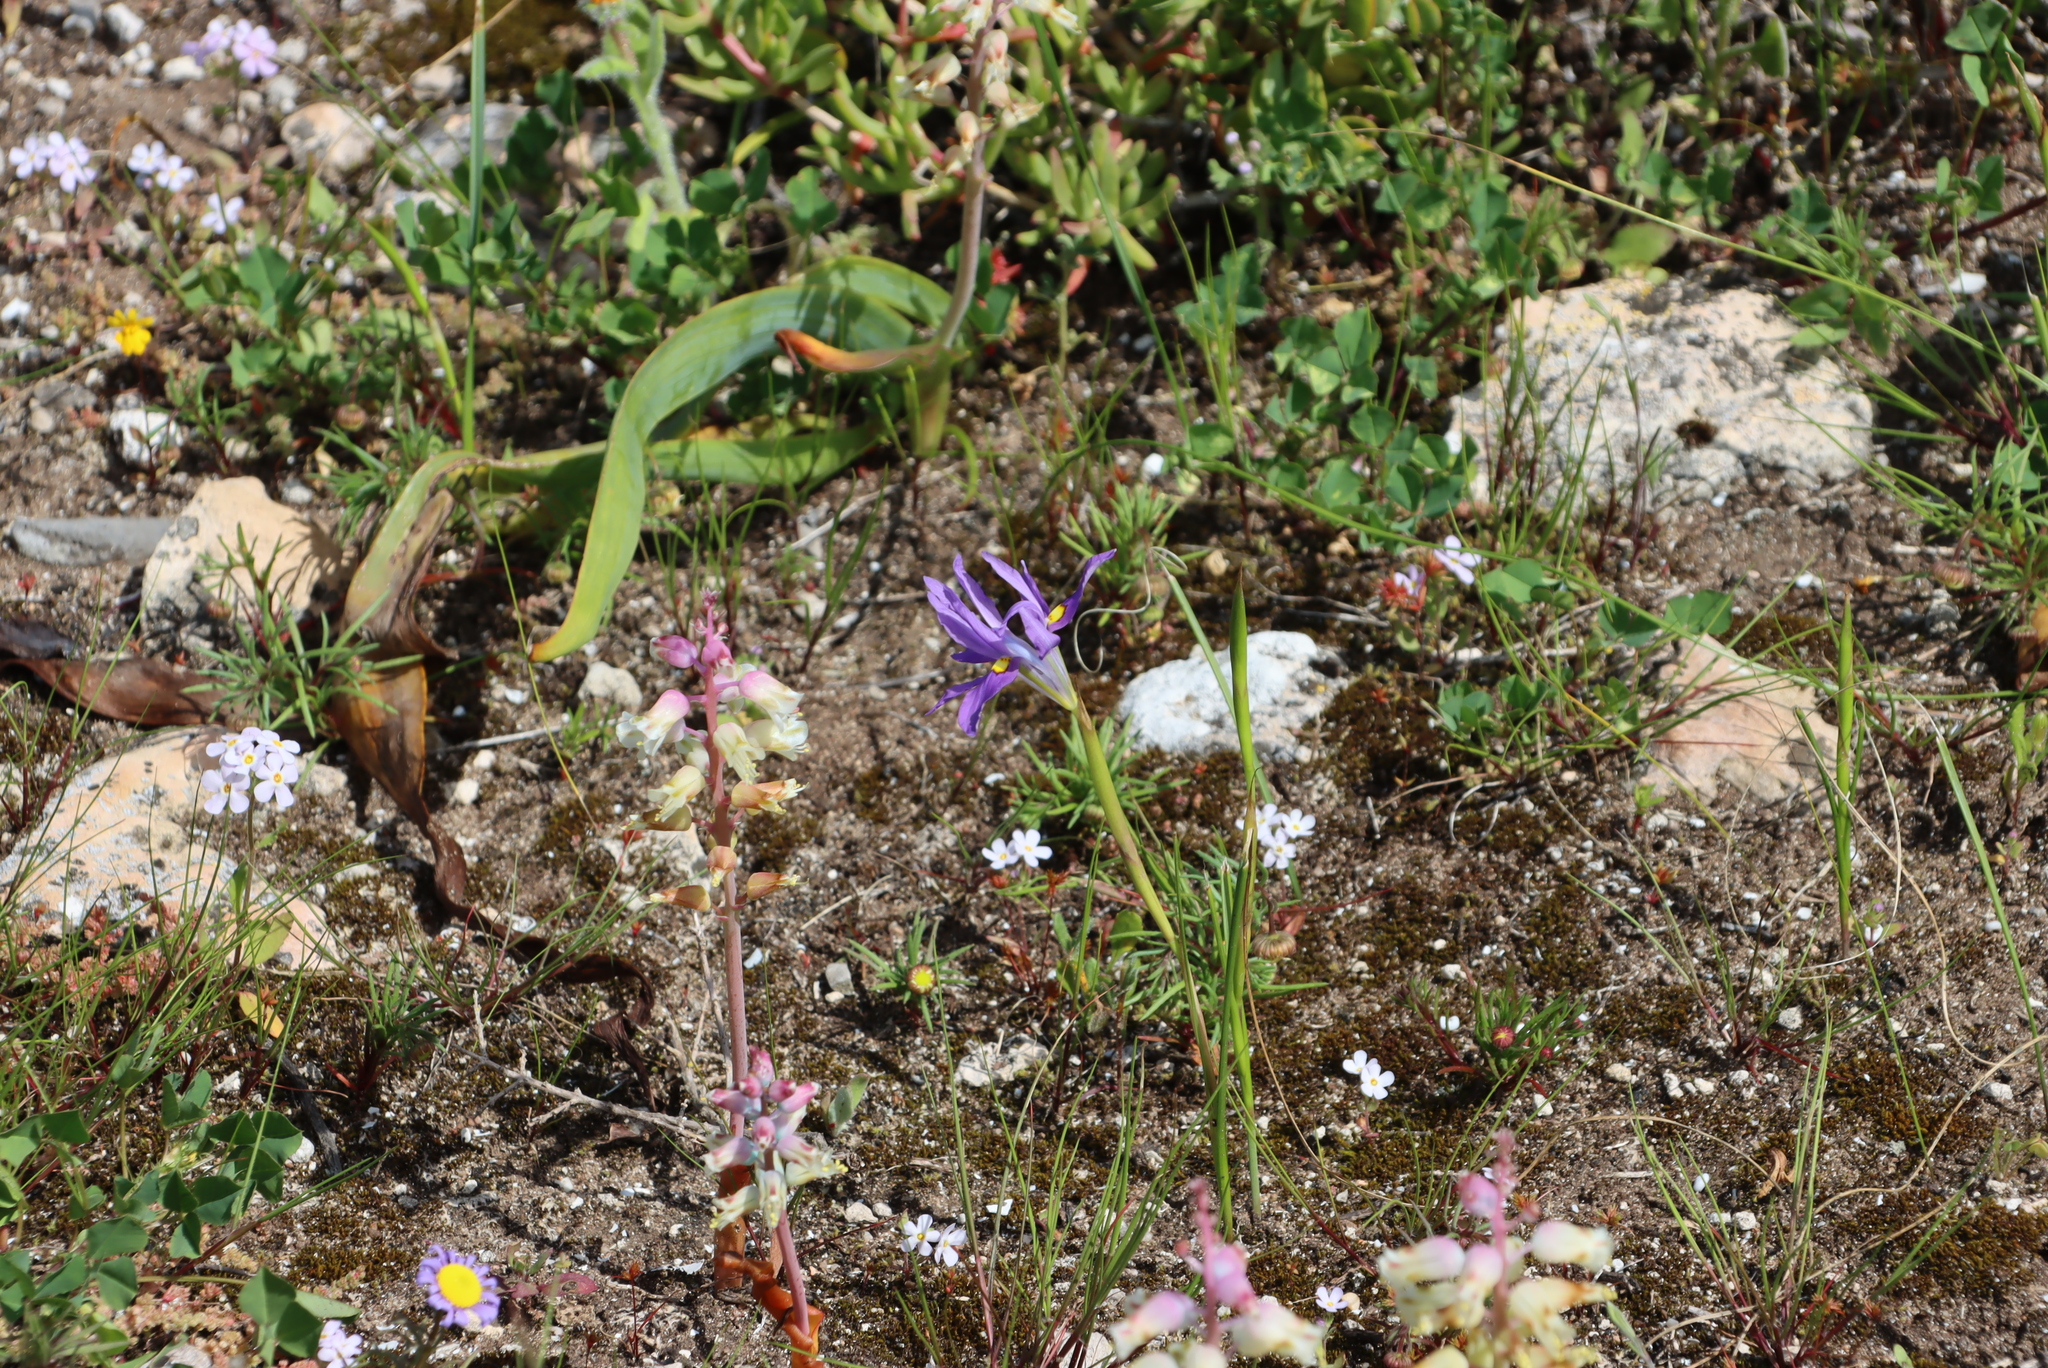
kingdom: Plantae
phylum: Tracheophyta
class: Liliopsida
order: Asparagales
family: Iridaceae
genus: Moraea
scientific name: Moraea fugax
